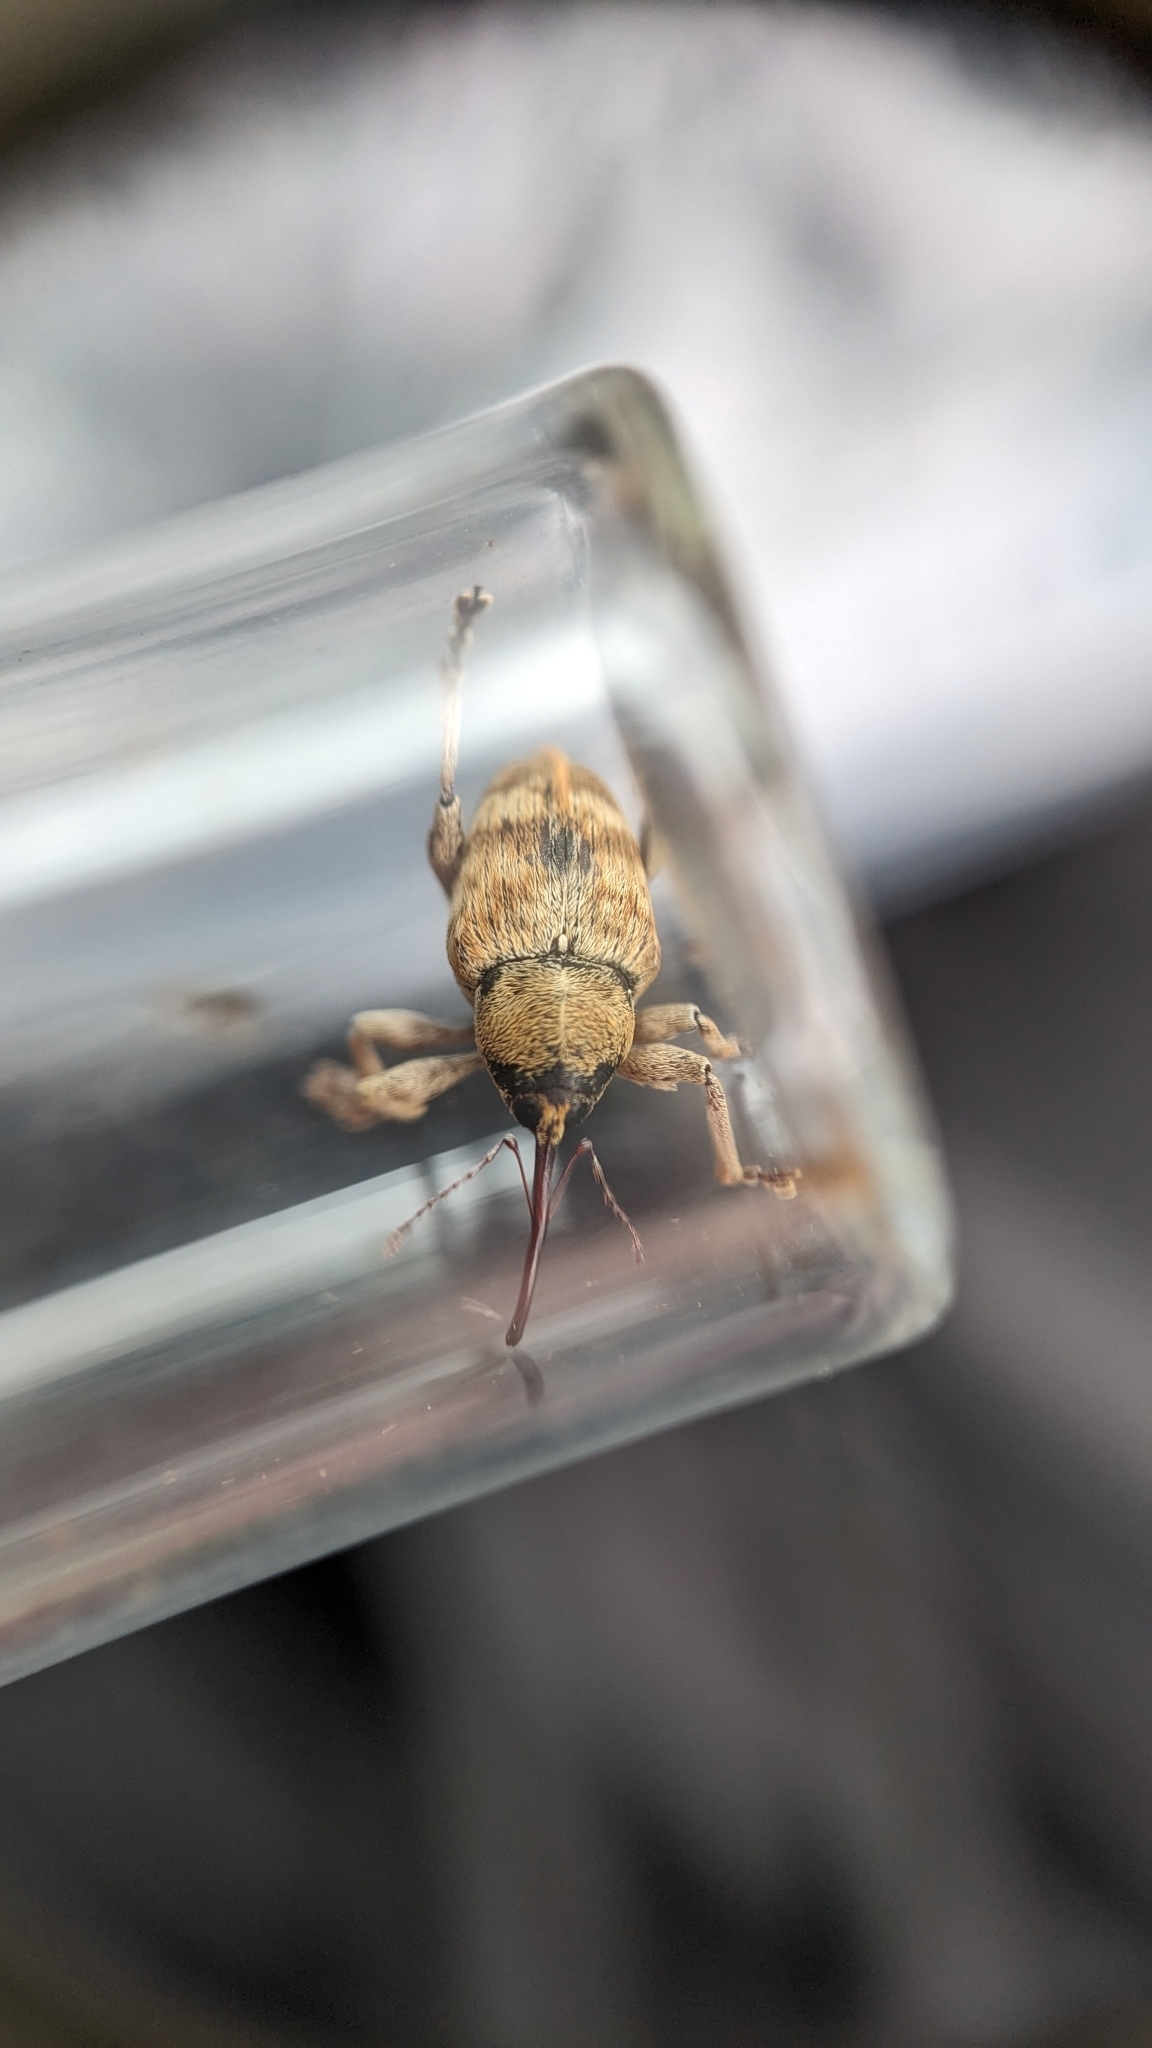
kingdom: Animalia
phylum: Arthropoda
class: Insecta
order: Coleoptera
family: Curculionidae
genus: Curculio
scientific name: Curculio venosus
